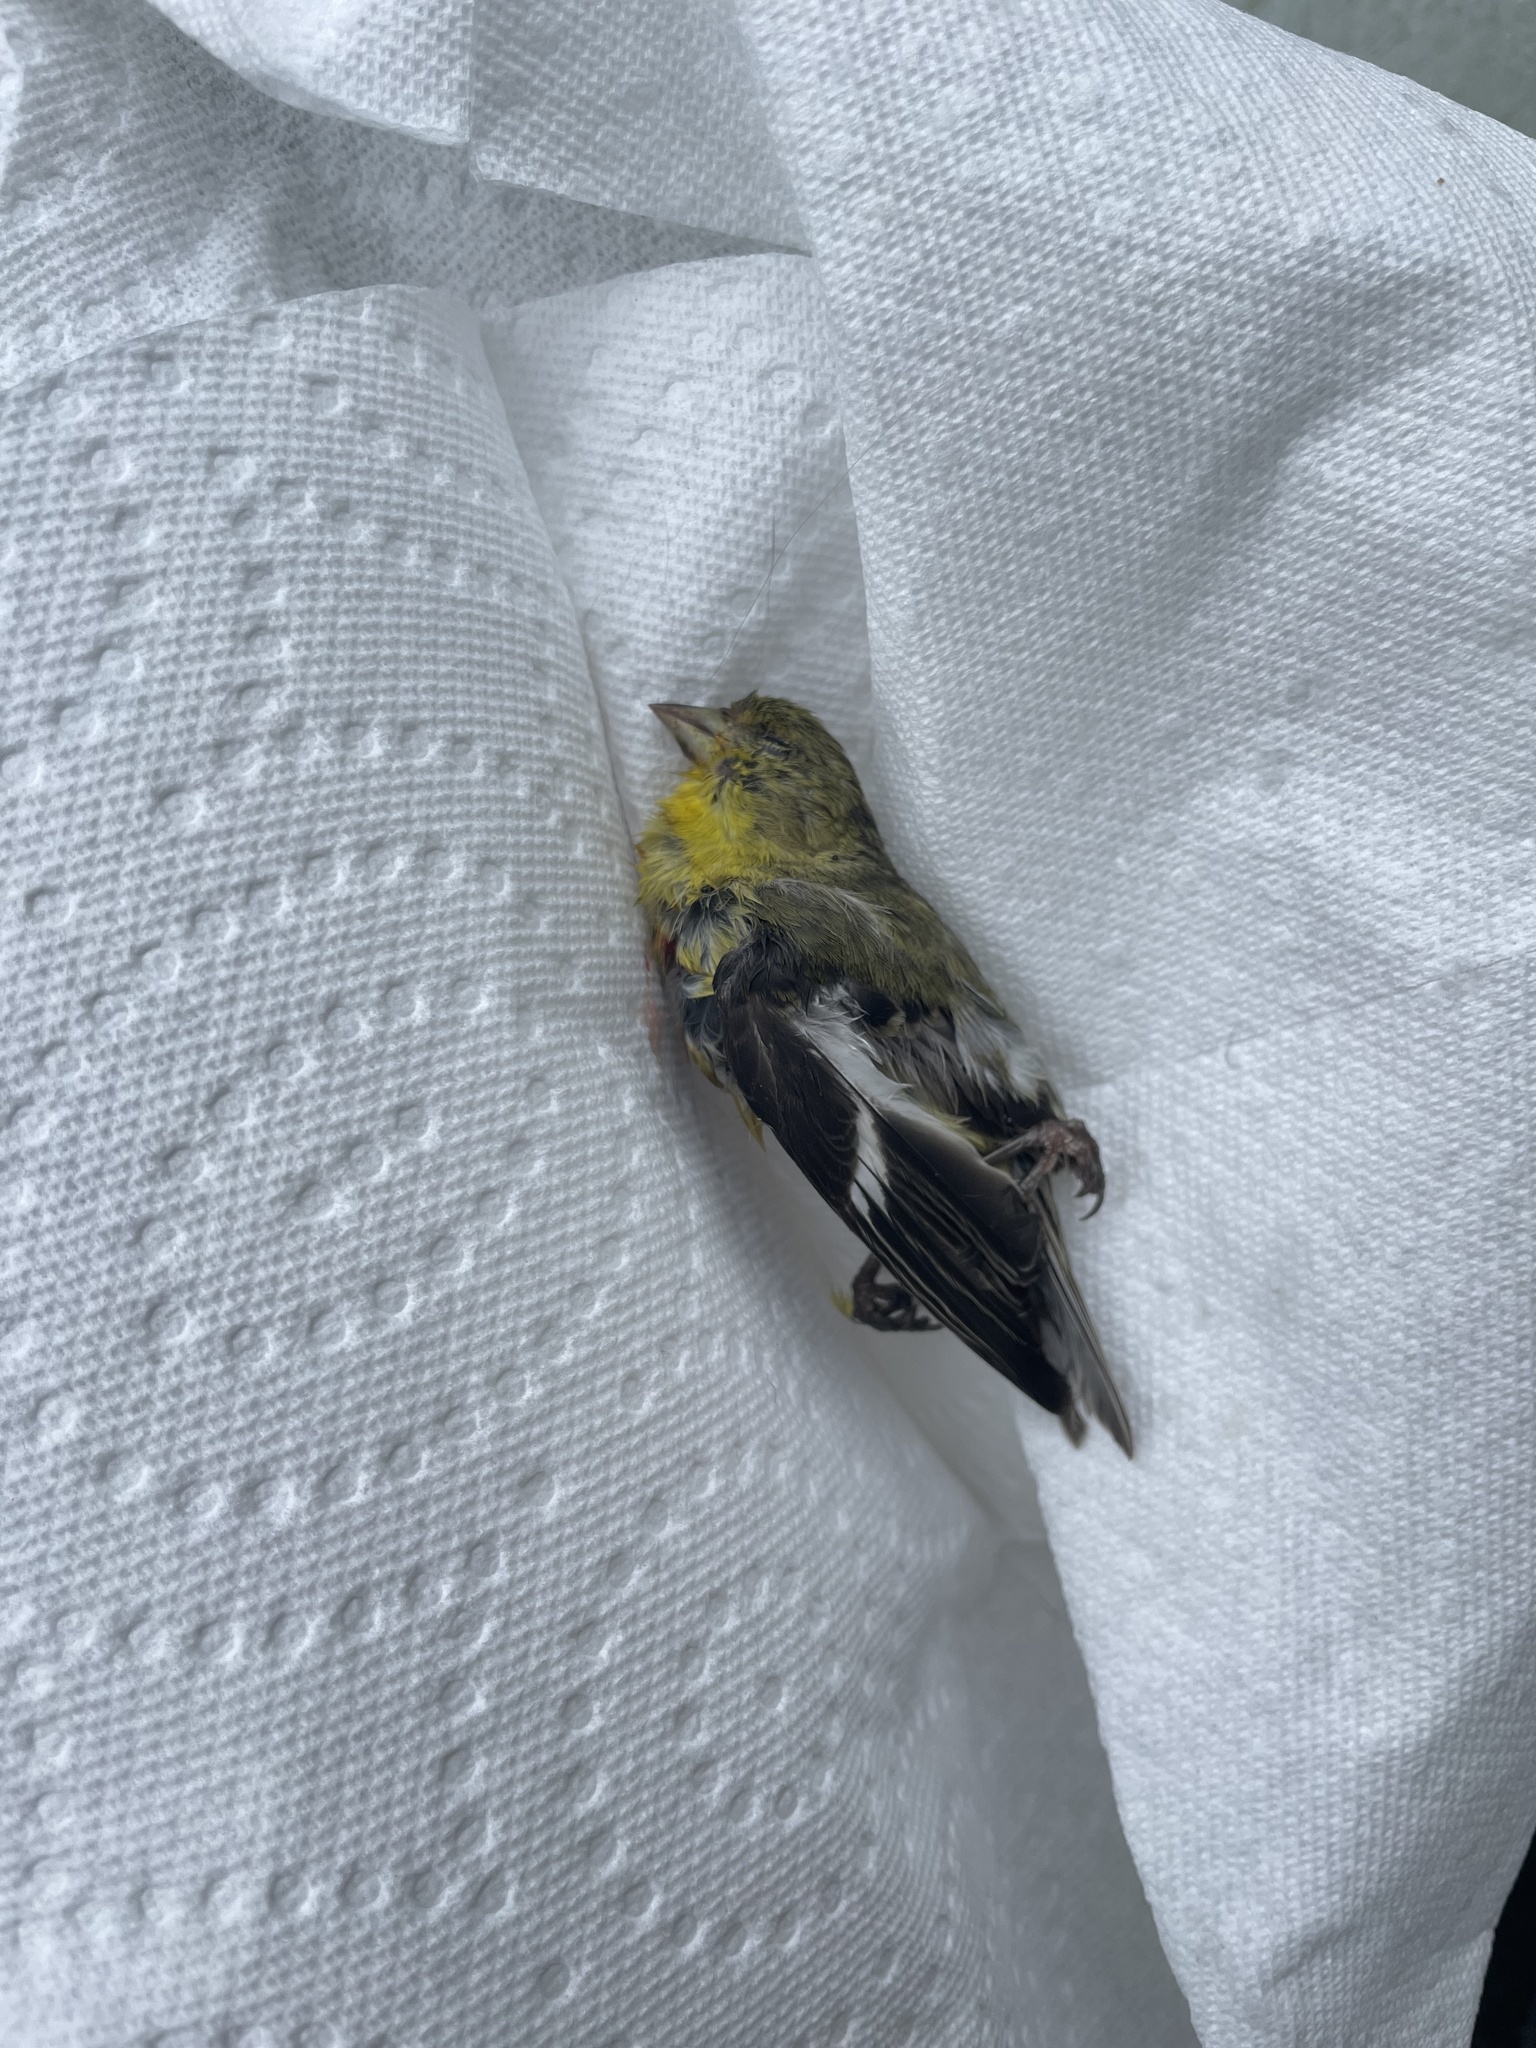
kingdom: Animalia
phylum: Chordata
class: Aves
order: Passeriformes
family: Fringillidae
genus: Spinus
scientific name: Spinus psaltria
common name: Lesser goldfinch
